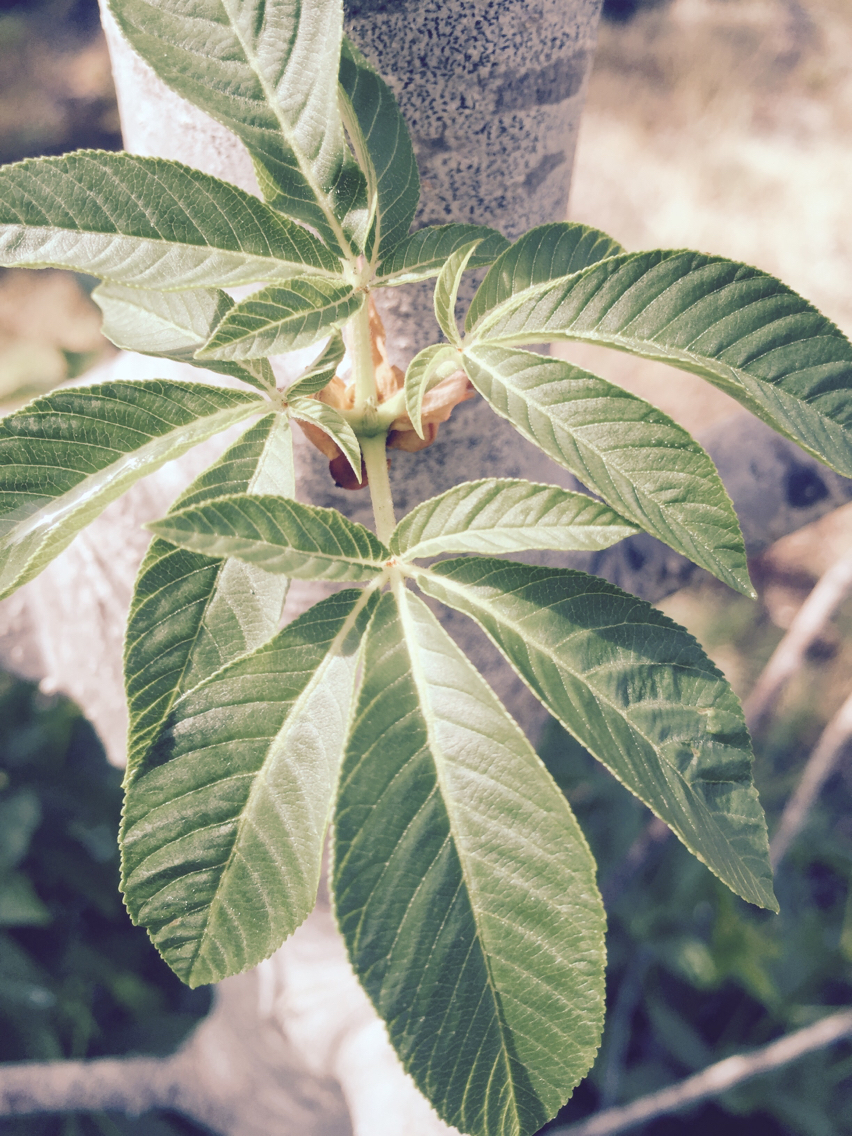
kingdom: Plantae
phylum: Tracheophyta
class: Magnoliopsida
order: Sapindales
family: Sapindaceae
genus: Aesculus
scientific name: Aesculus californica
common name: California buckeye
